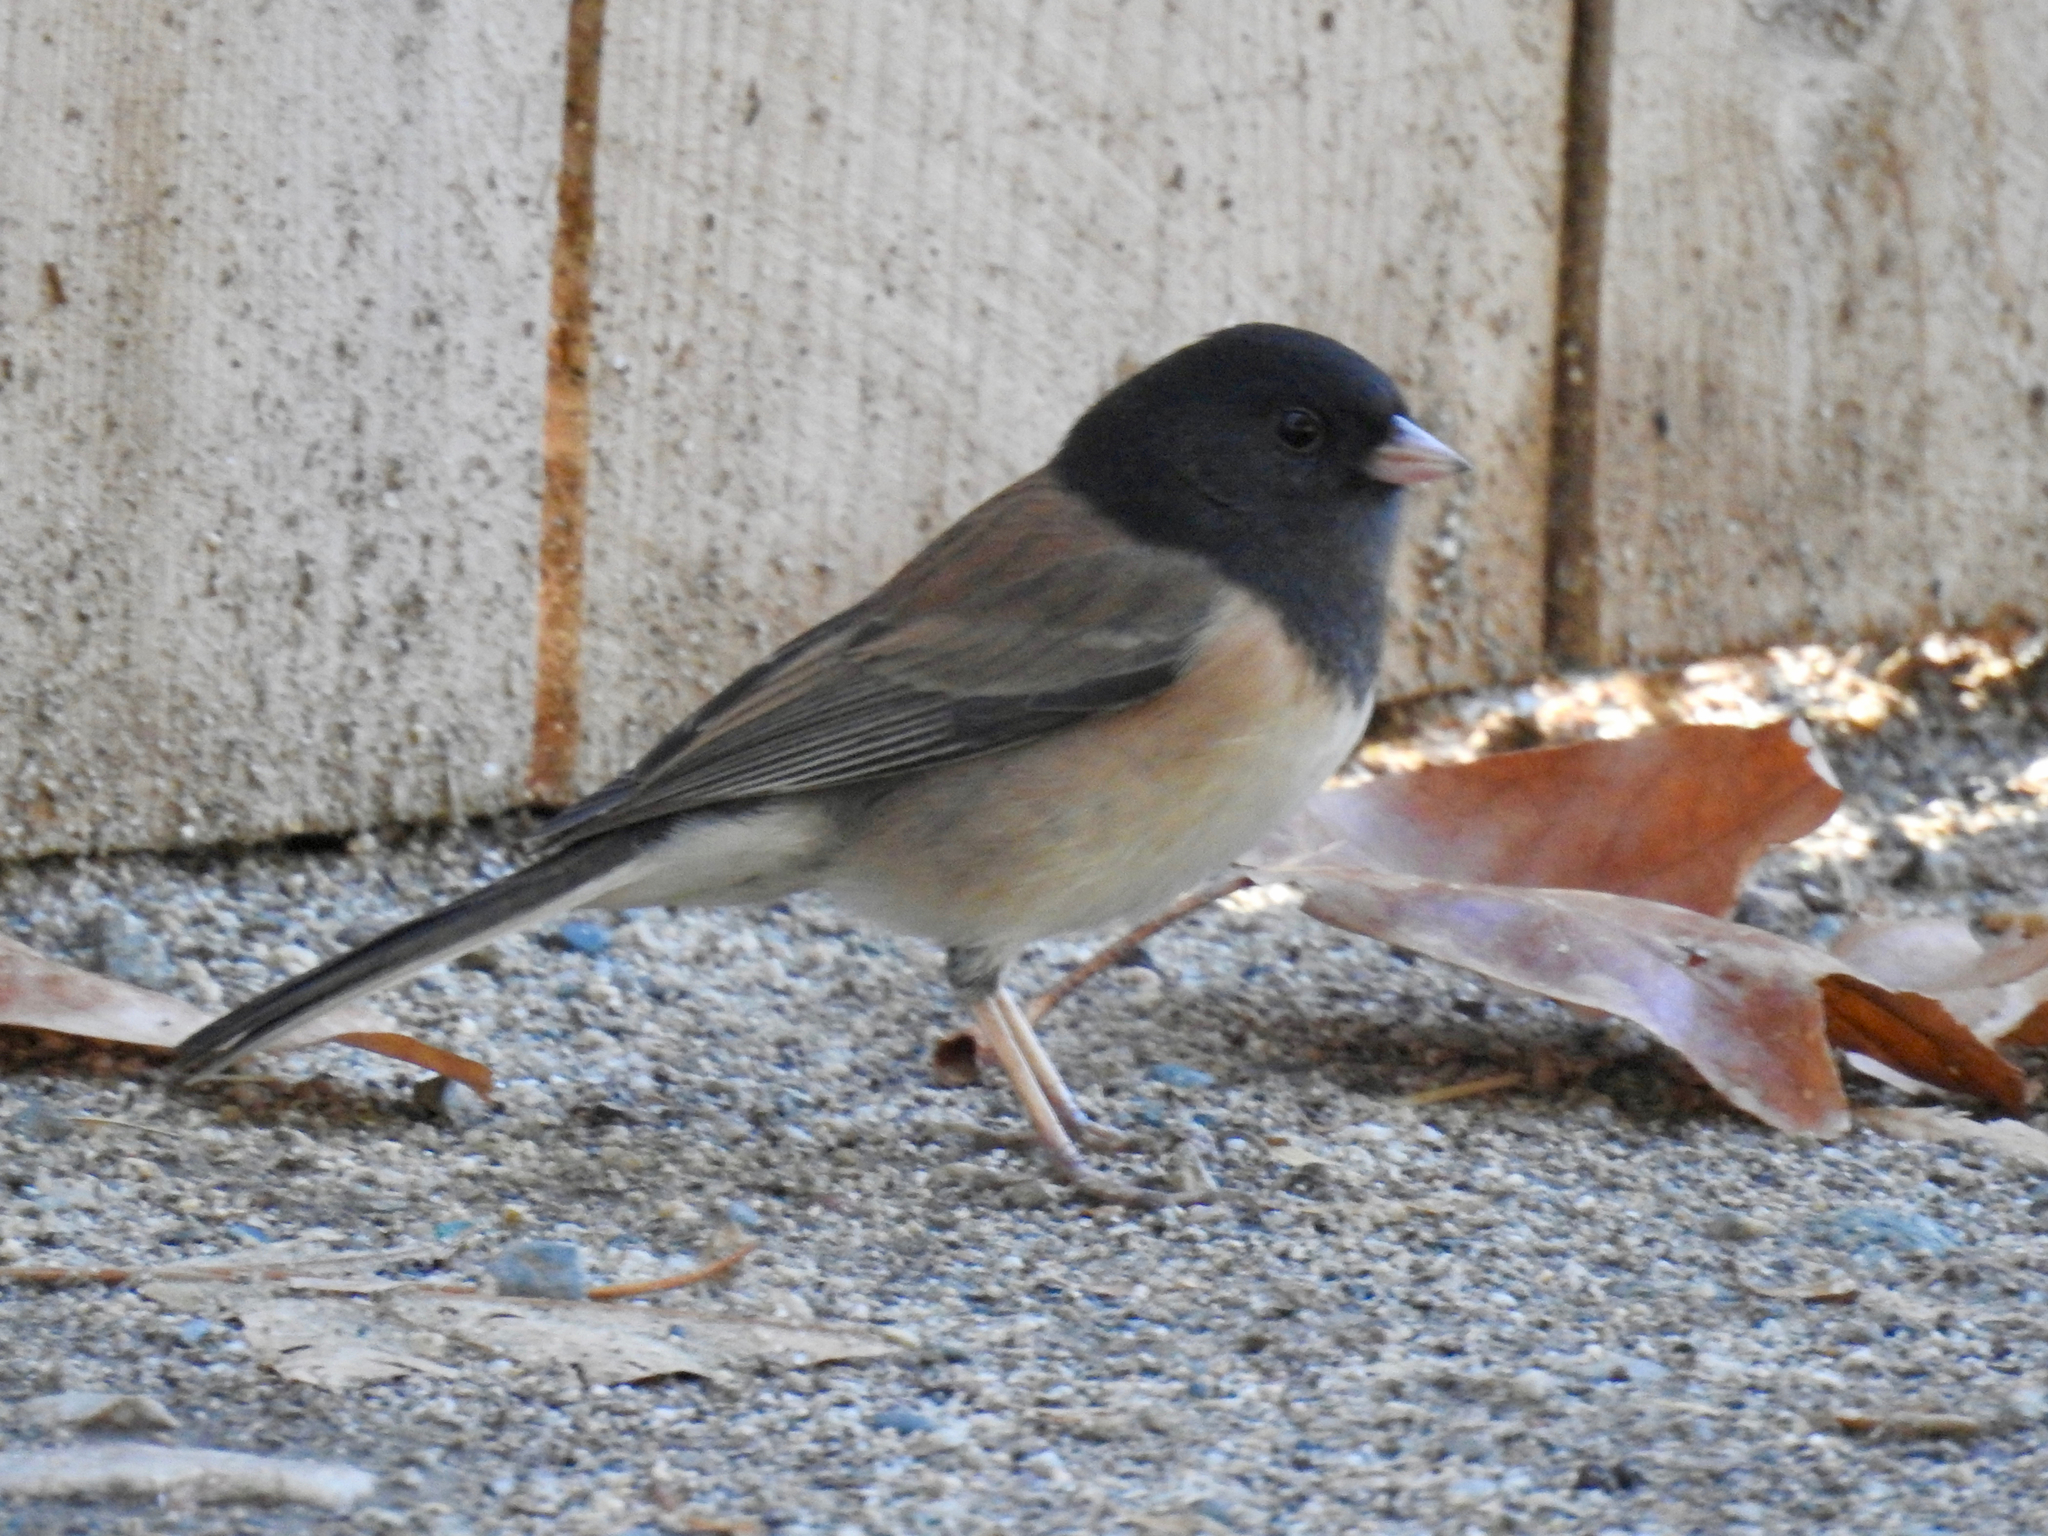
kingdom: Animalia
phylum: Chordata
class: Aves
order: Passeriformes
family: Passerellidae
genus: Junco
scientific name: Junco hyemalis
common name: Dark-eyed junco
